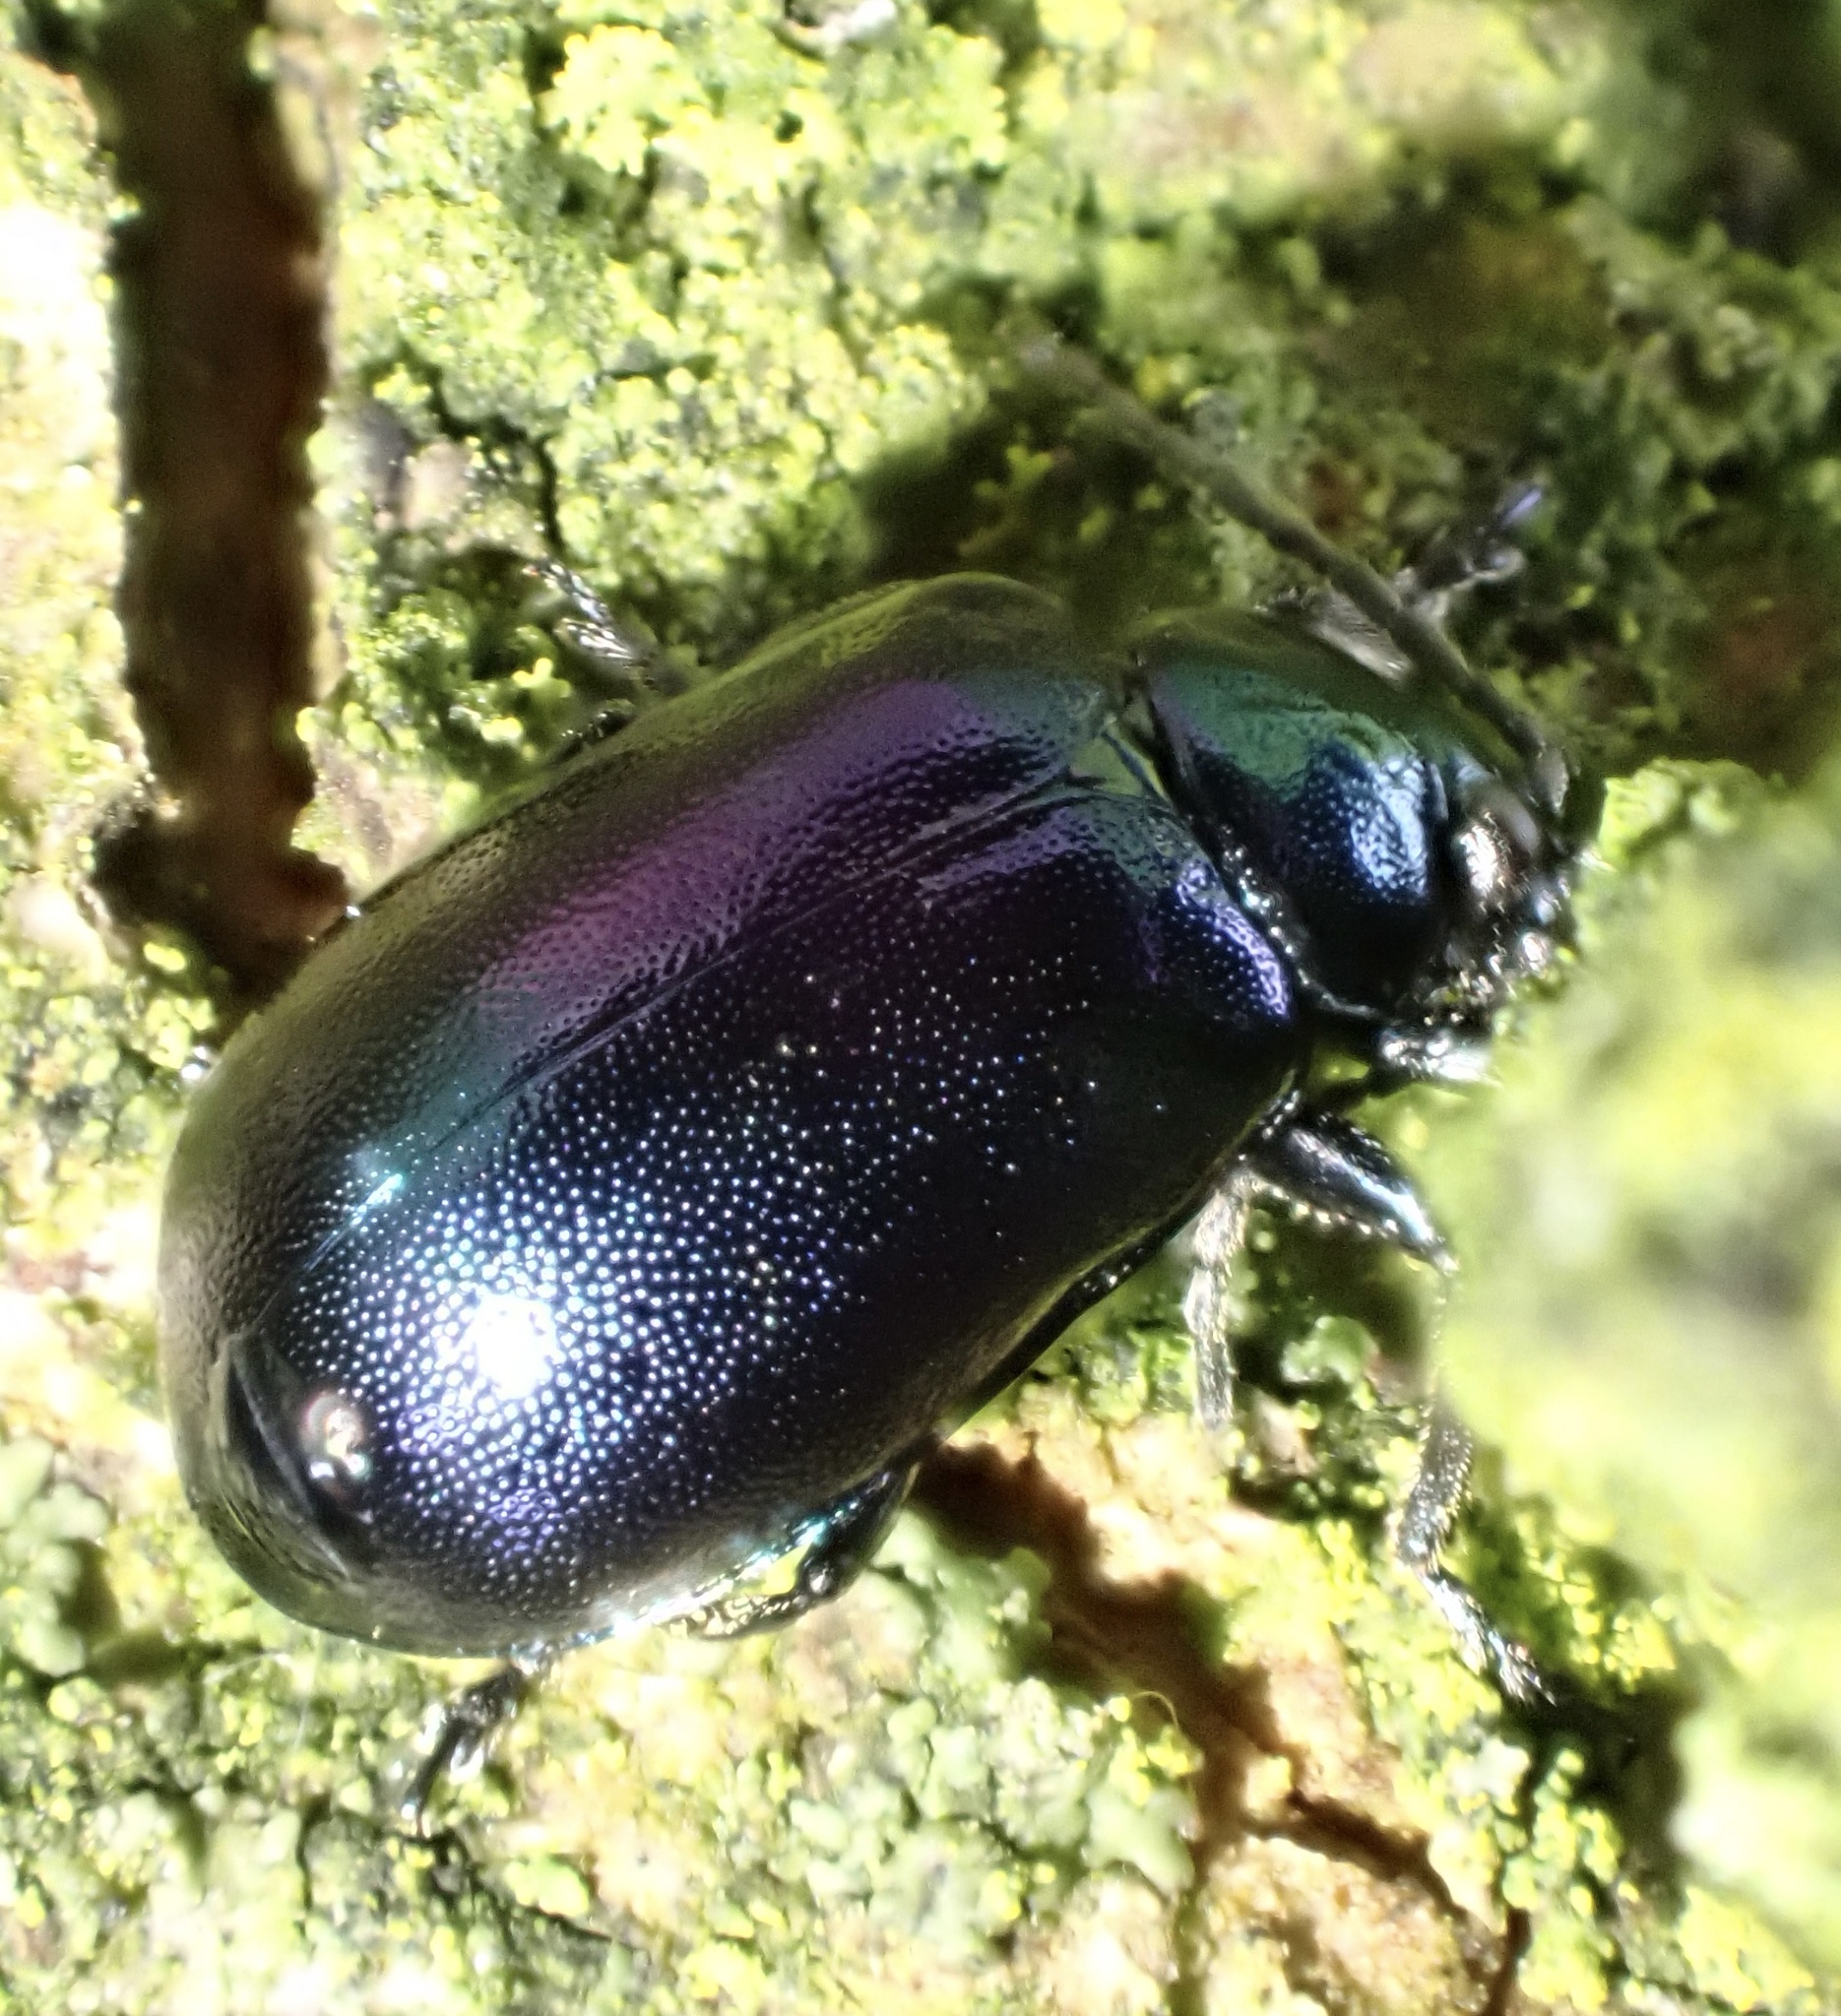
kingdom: Animalia
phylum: Arthropoda
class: Insecta
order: Coleoptera
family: Chrysomelidae
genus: Agelastica
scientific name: Agelastica alni
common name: Alder leaf beetle
